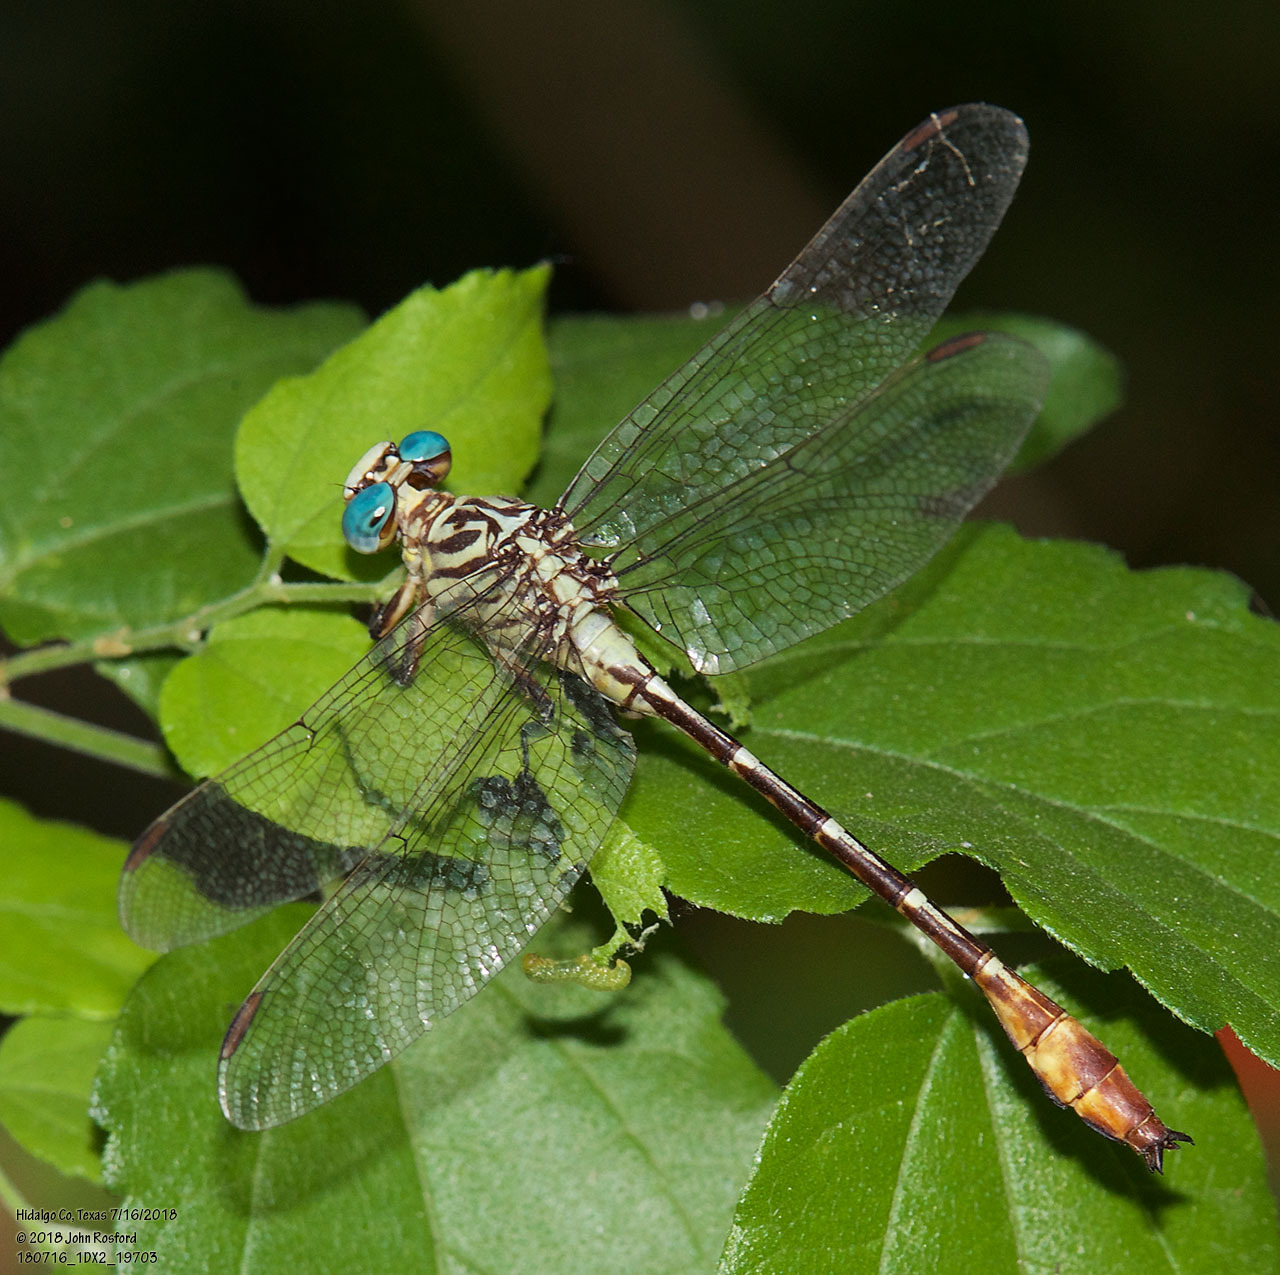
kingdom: Animalia
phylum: Arthropoda
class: Insecta
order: Odonata
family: Gomphidae
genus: Stylurus
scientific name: Stylurus plagiatus
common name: Russet-tipped clubtail
